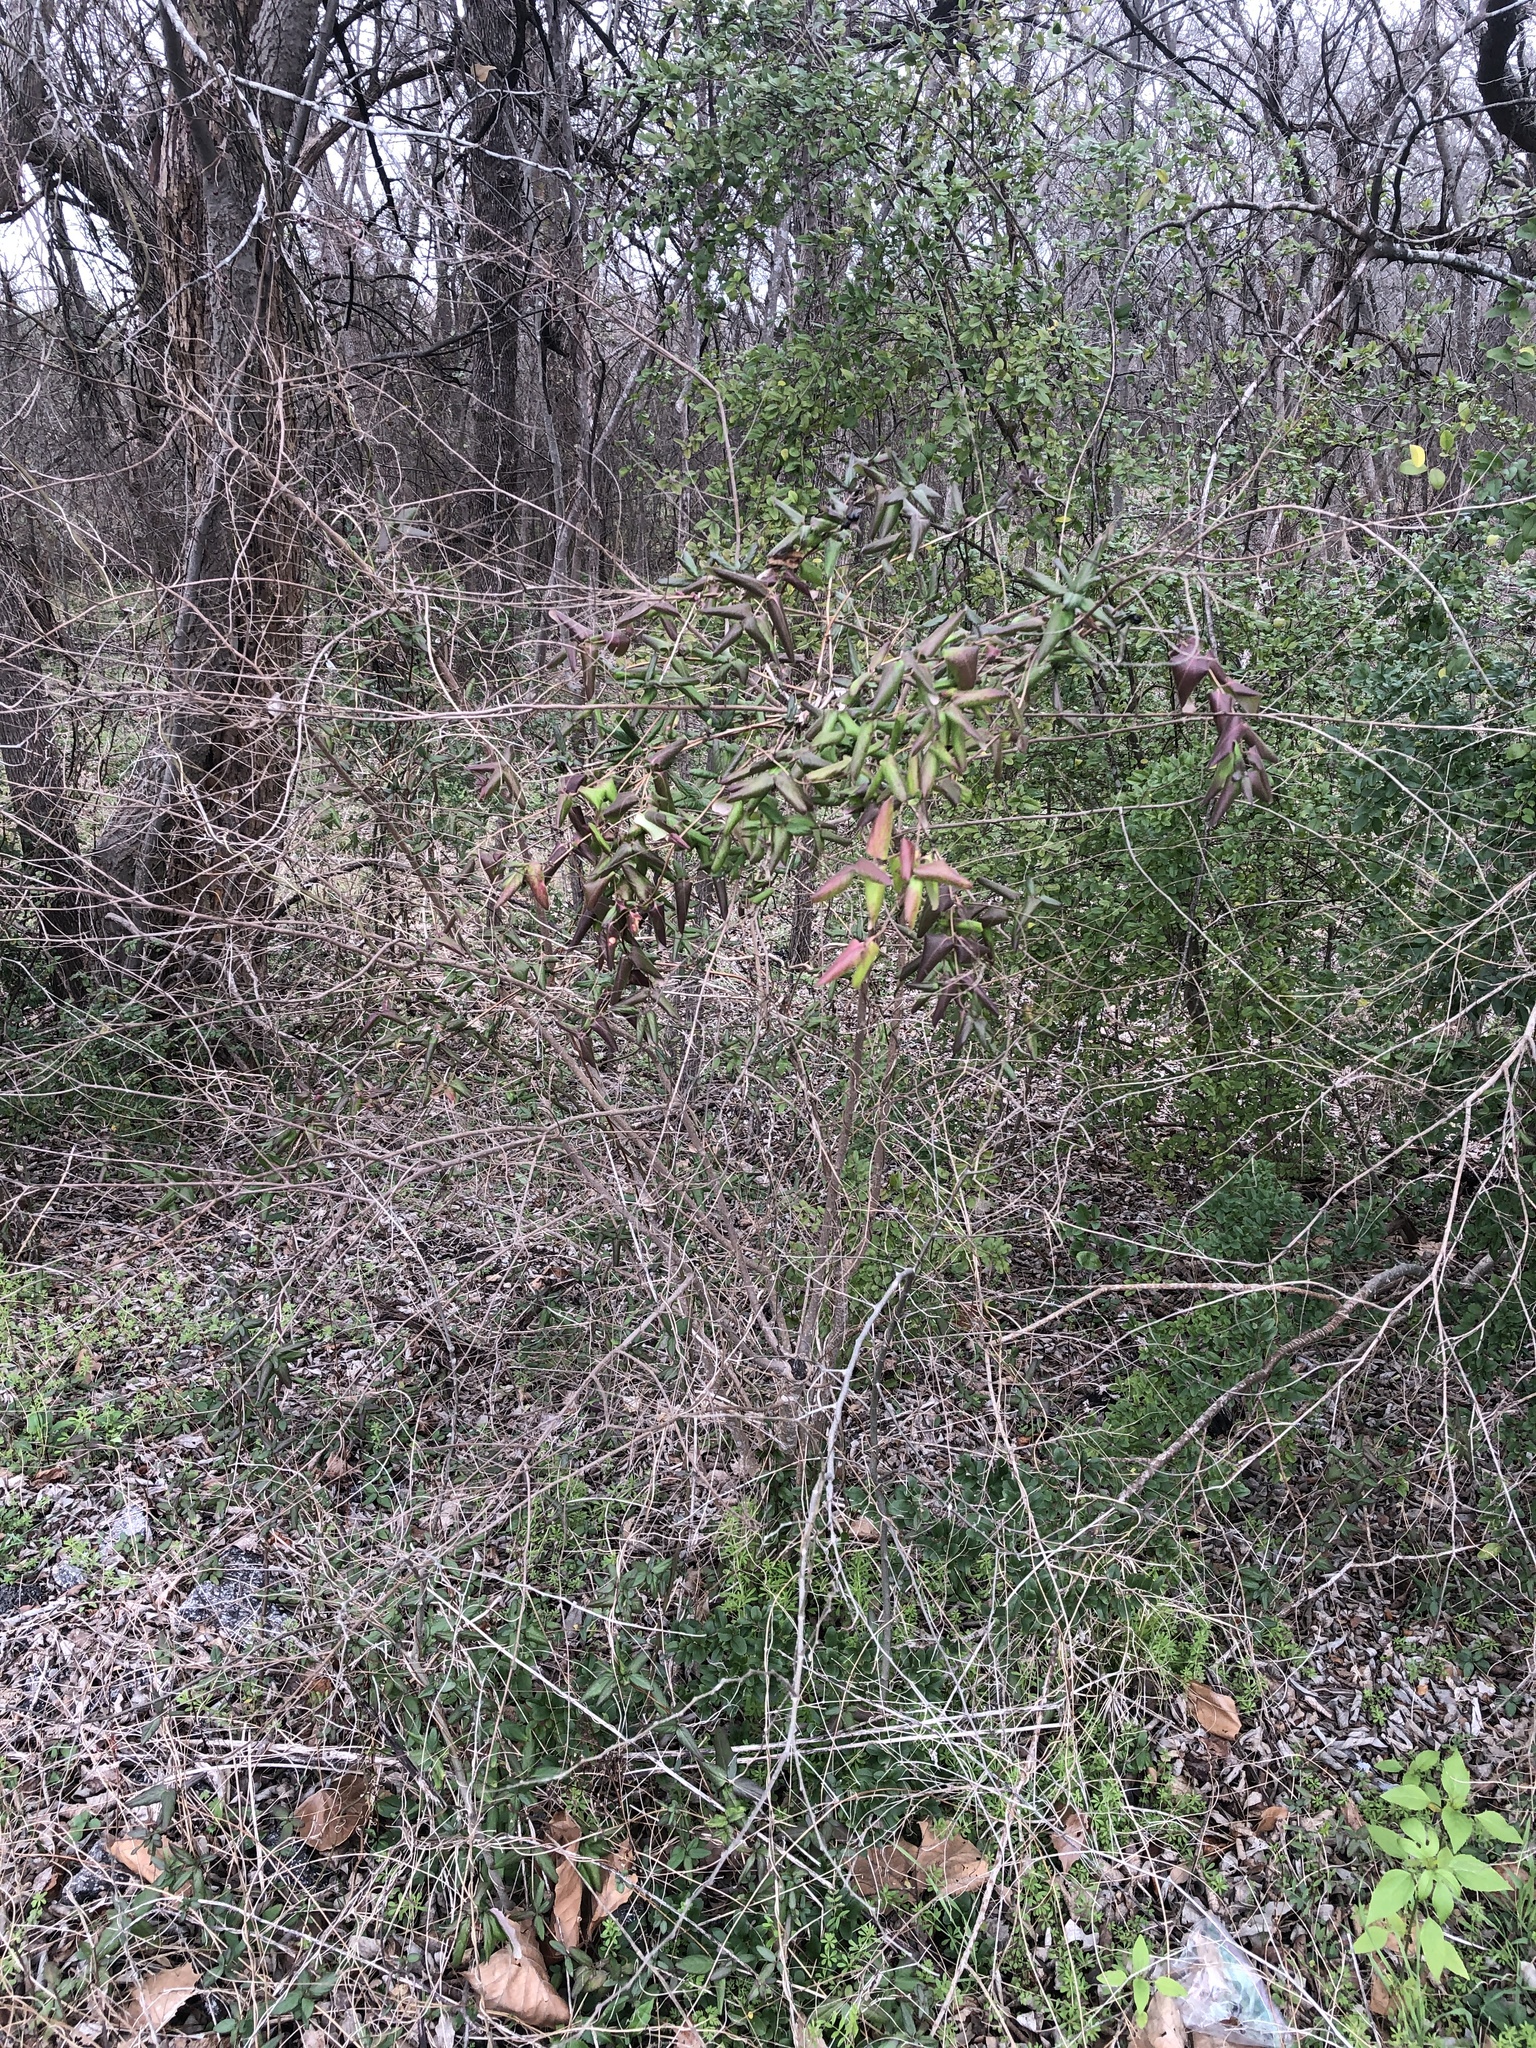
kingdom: Plantae
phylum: Tracheophyta
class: Magnoliopsida
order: Dipsacales
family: Caprifoliaceae
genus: Lonicera
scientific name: Lonicera japonica
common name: Japanese honeysuckle
